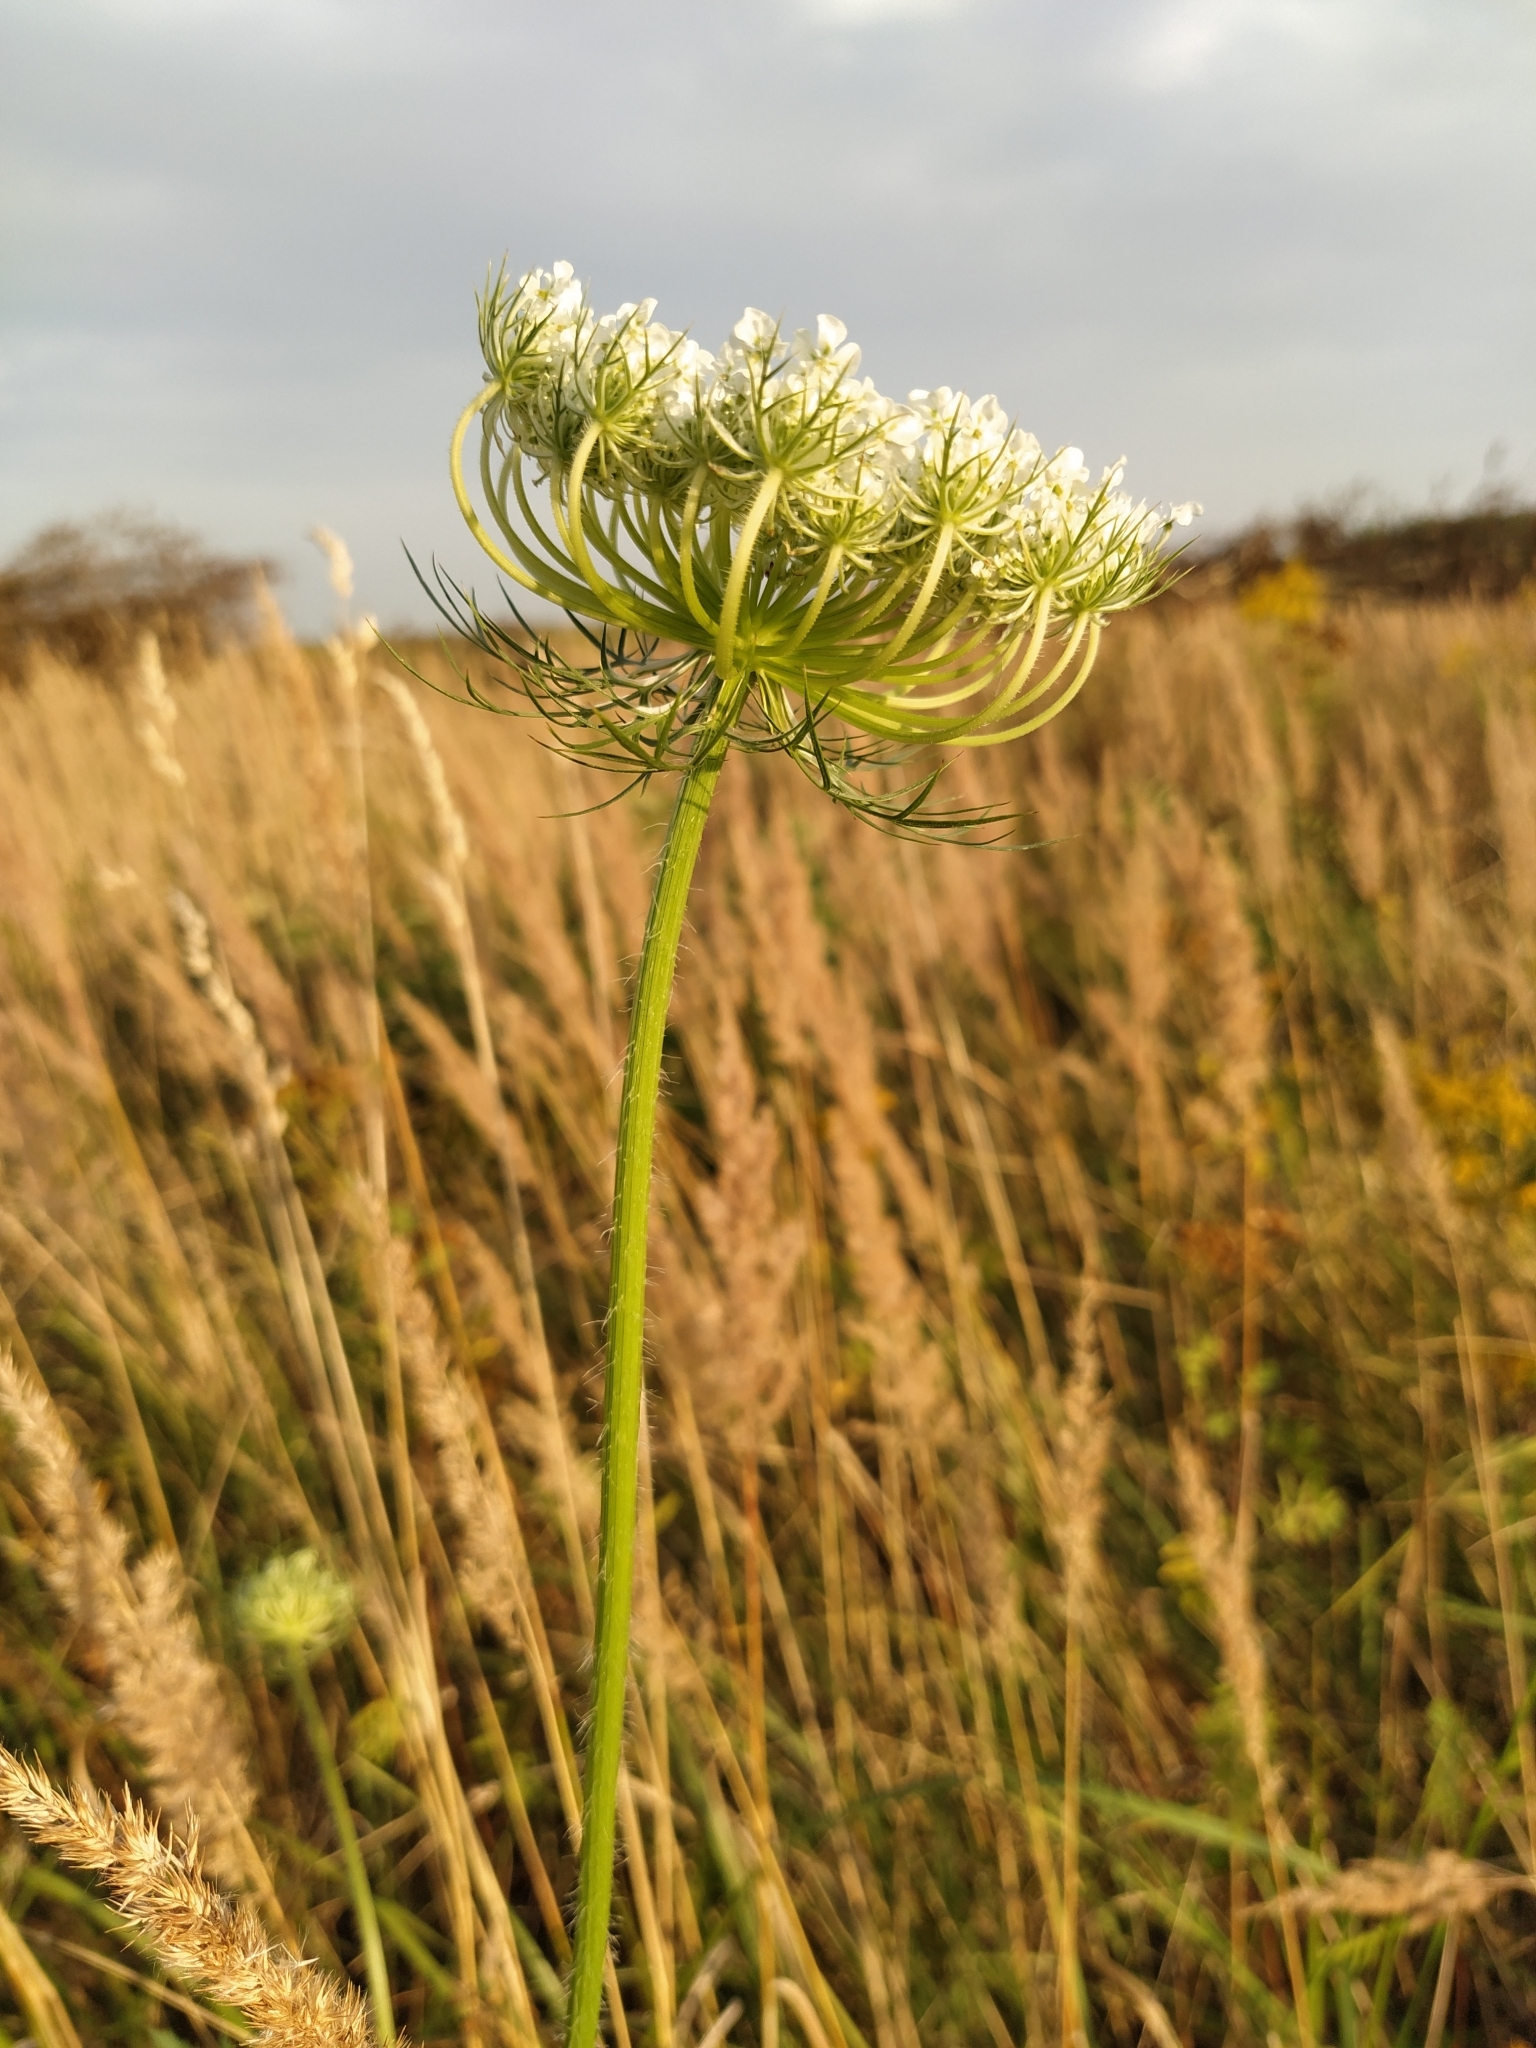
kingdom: Plantae
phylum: Tracheophyta
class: Magnoliopsida
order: Apiales
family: Apiaceae
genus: Daucus
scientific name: Daucus carota
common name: Wild carrot
